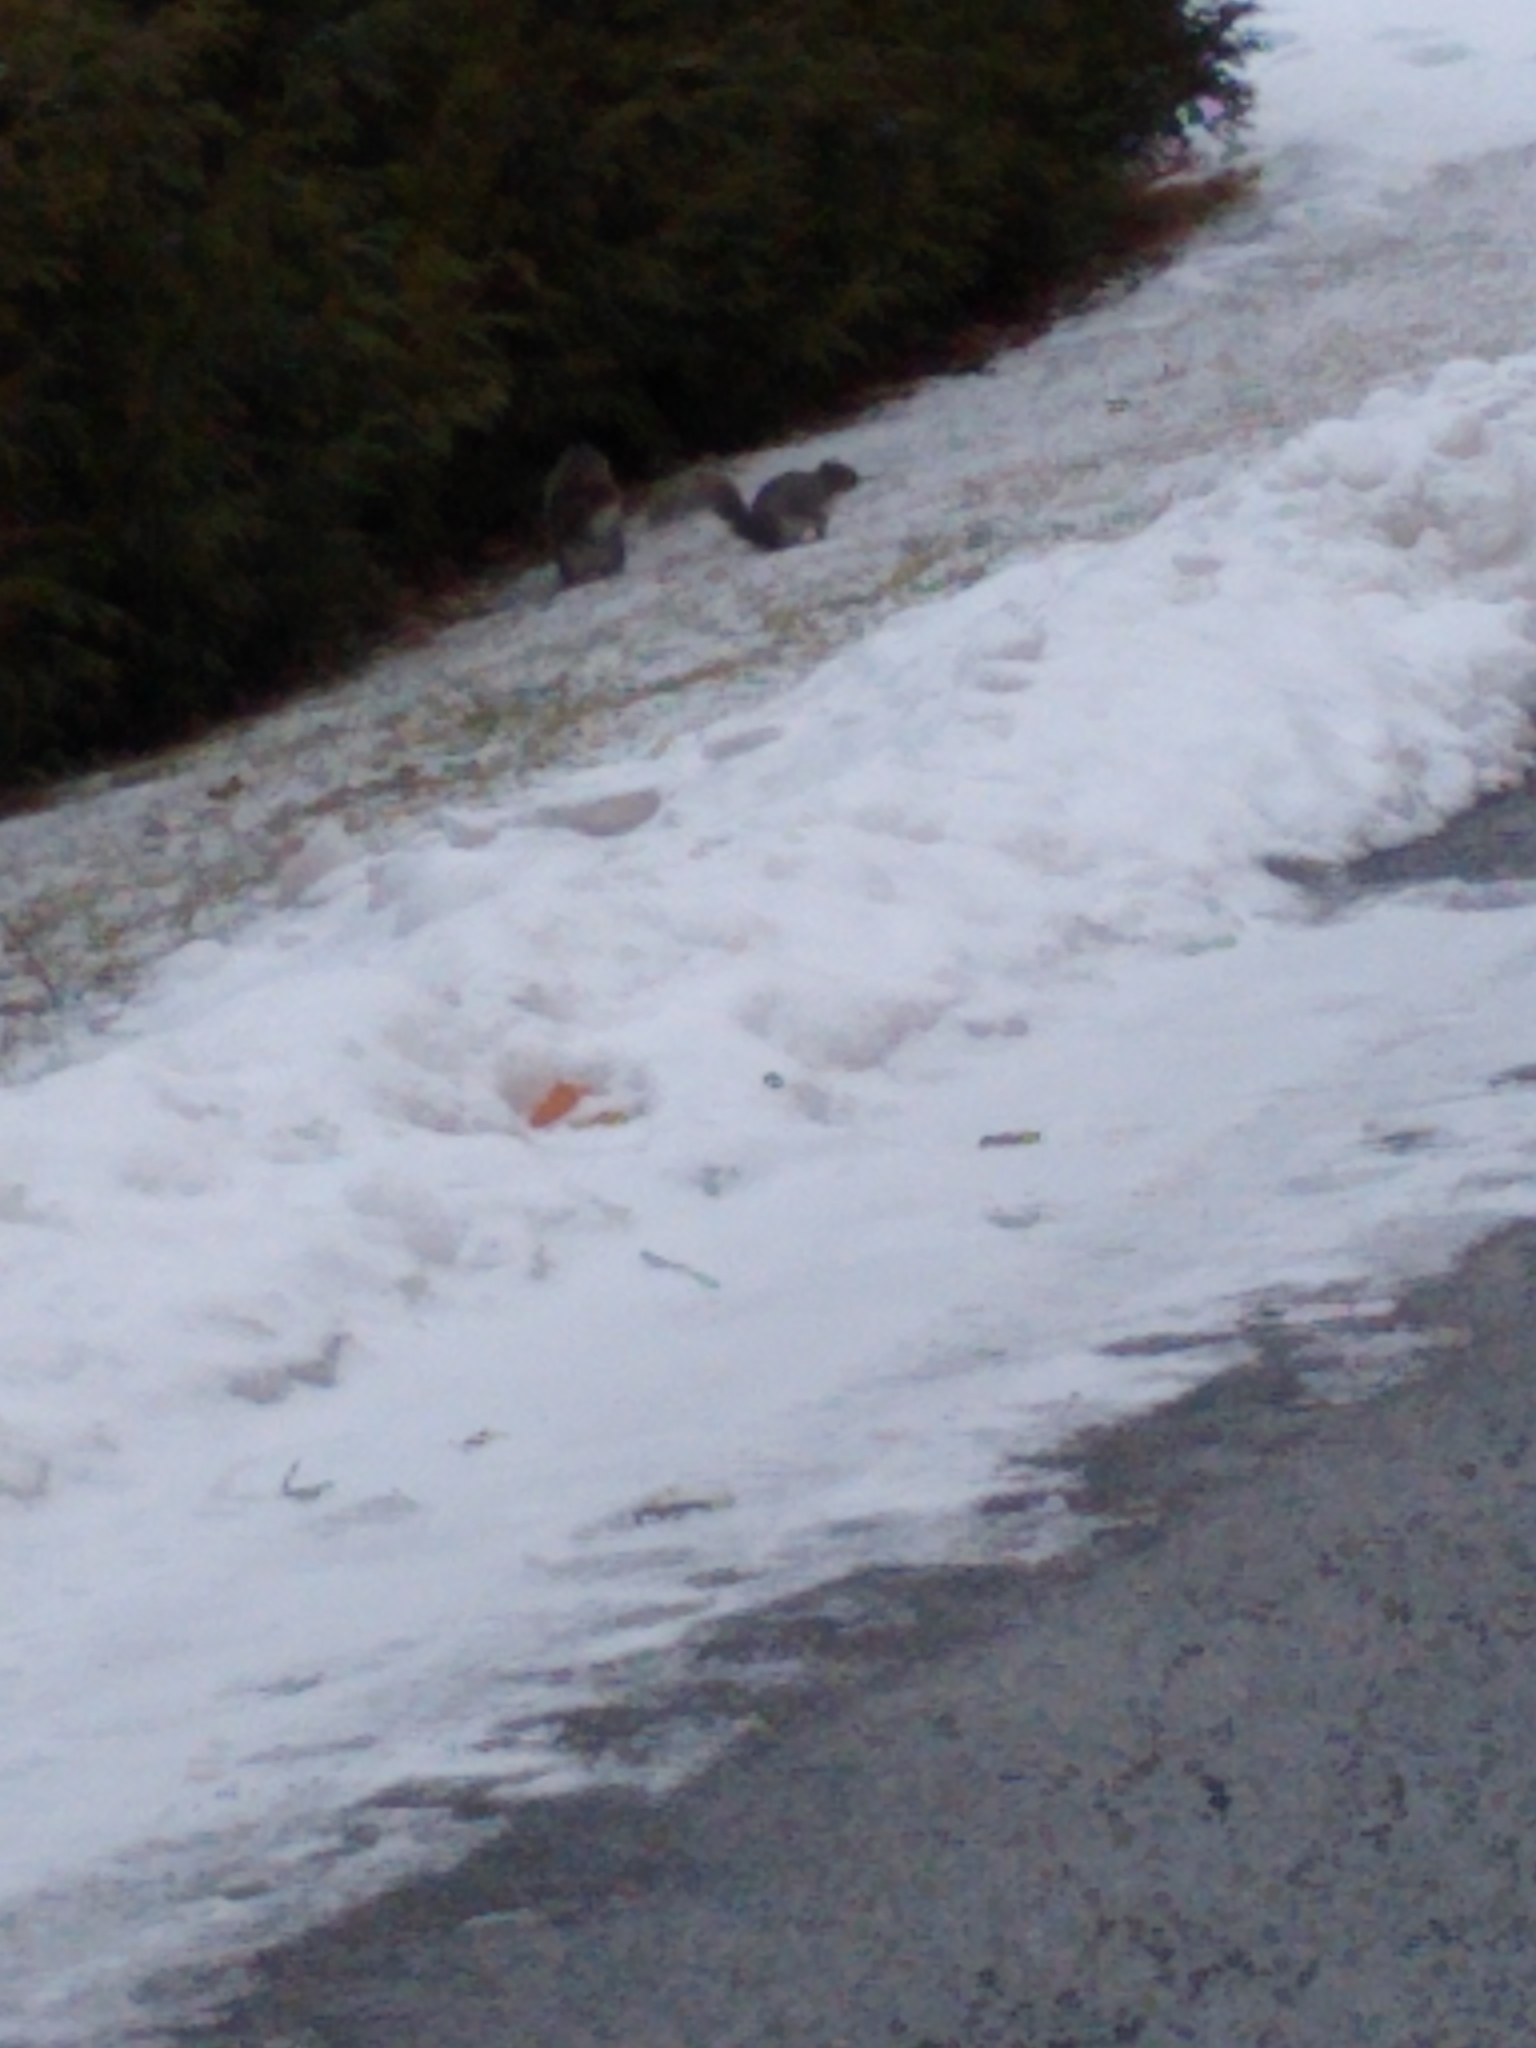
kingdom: Animalia
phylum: Chordata
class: Mammalia
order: Rodentia
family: Sciuridae
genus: Sciurus
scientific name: Sciurus carolinensis
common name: Eastern gray squirrel
